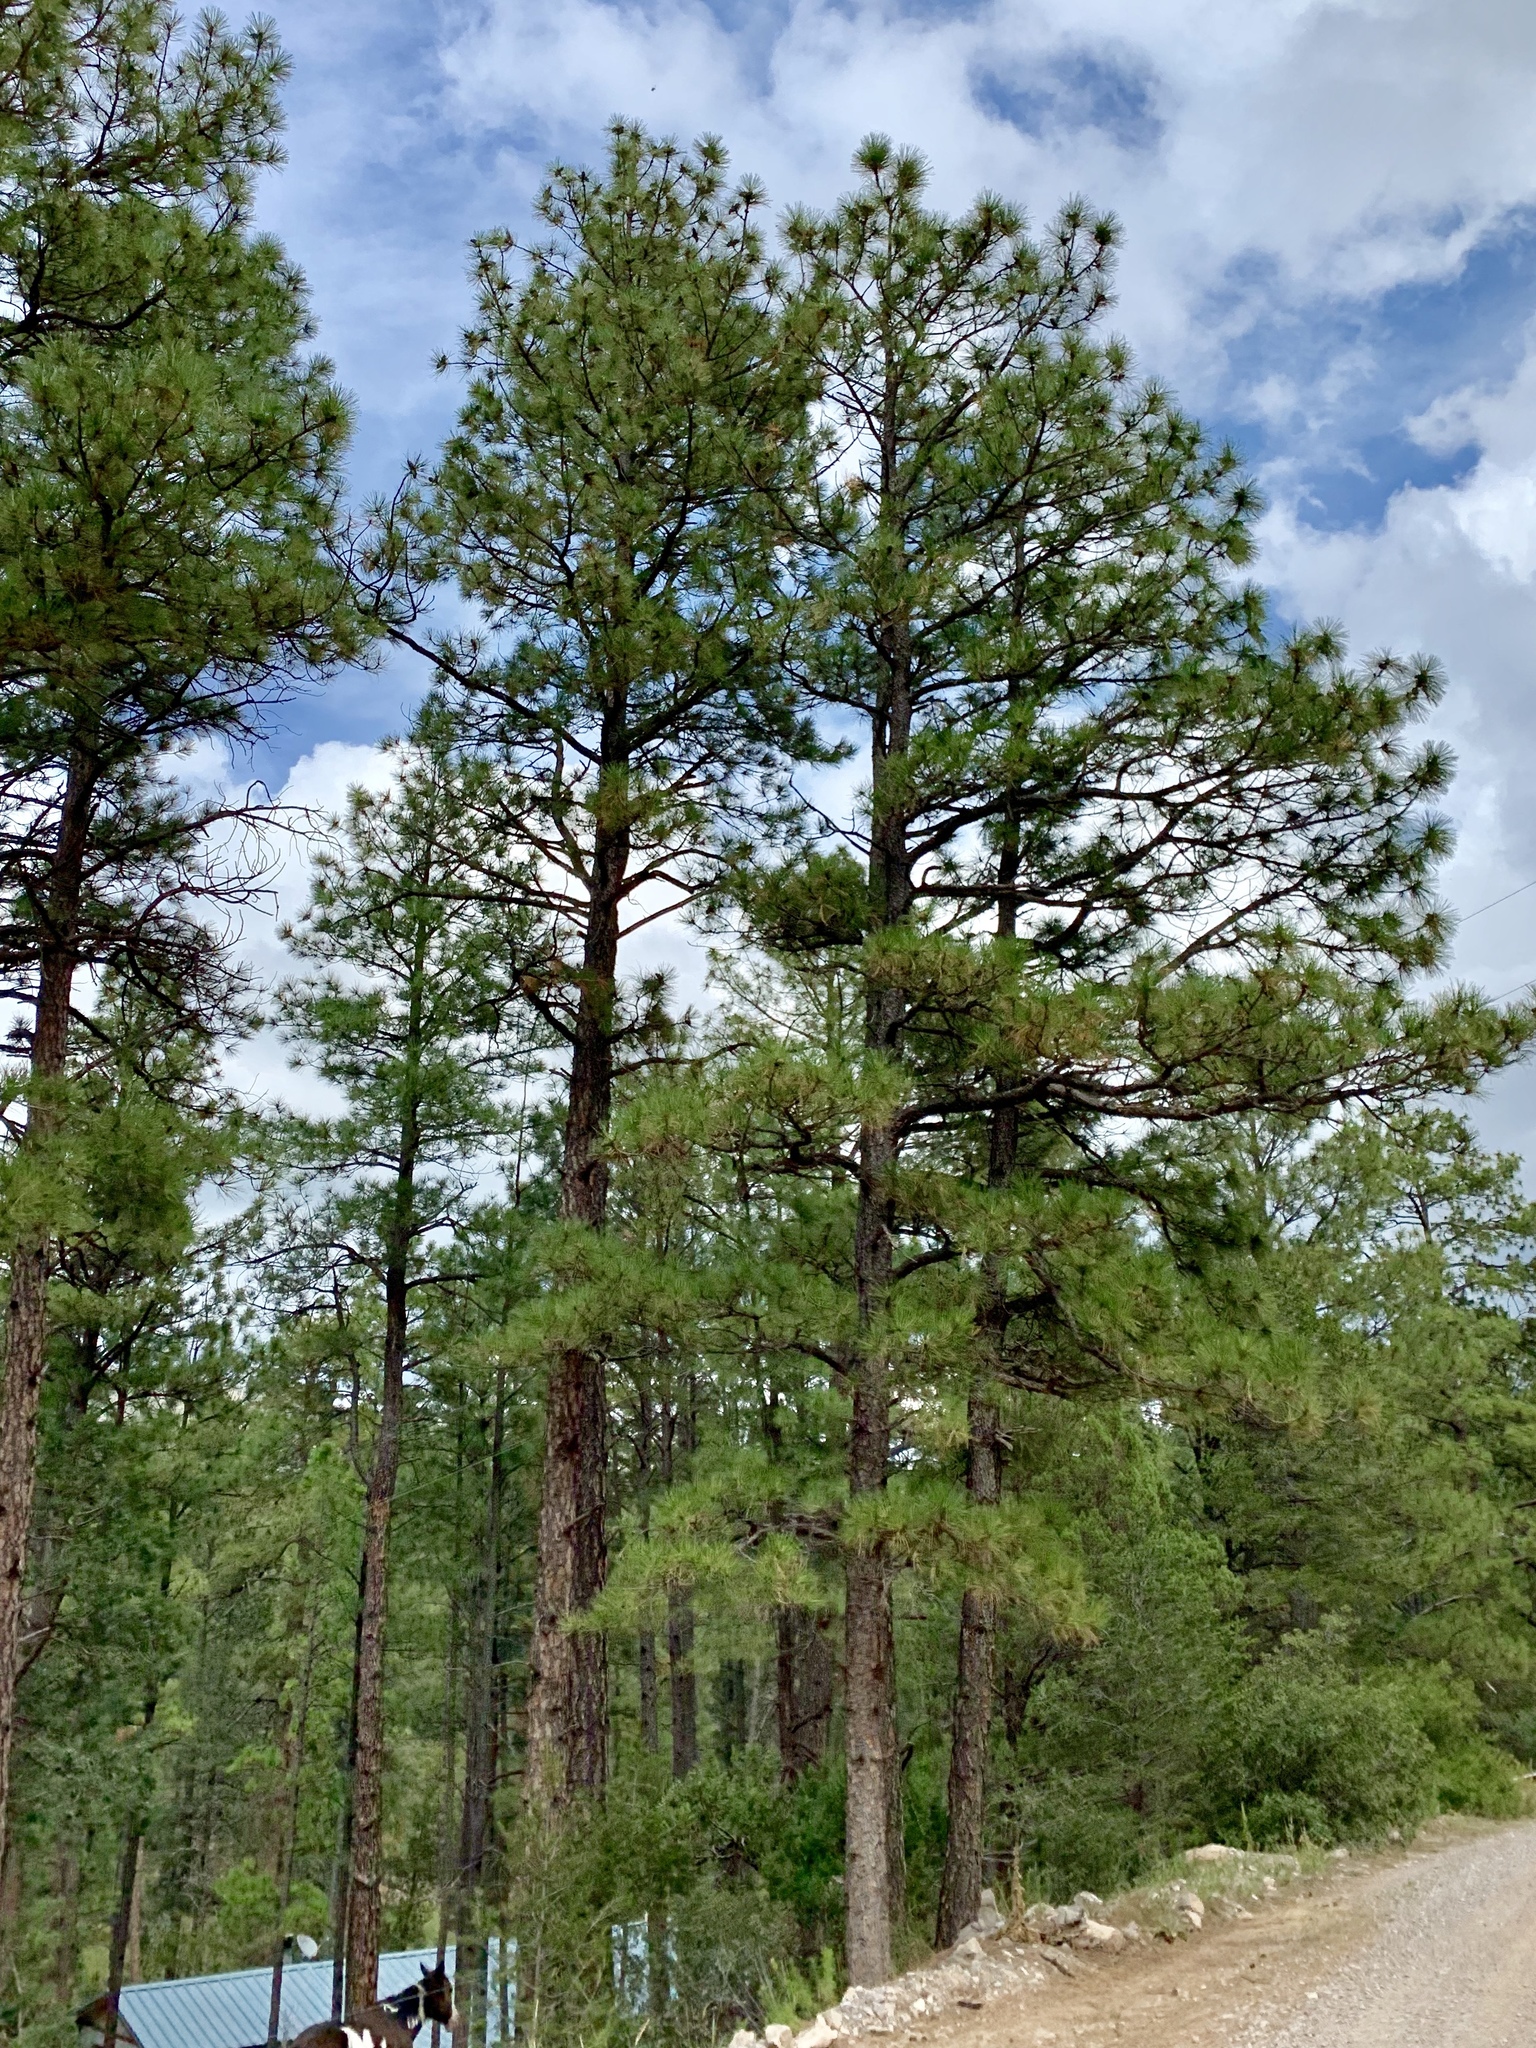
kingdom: Plantae
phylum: Tracheophyta
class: Pinopsida
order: Pinales
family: Pinaceae
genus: Pinus
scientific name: Pinus ponderosa
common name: Western yellow-pine
